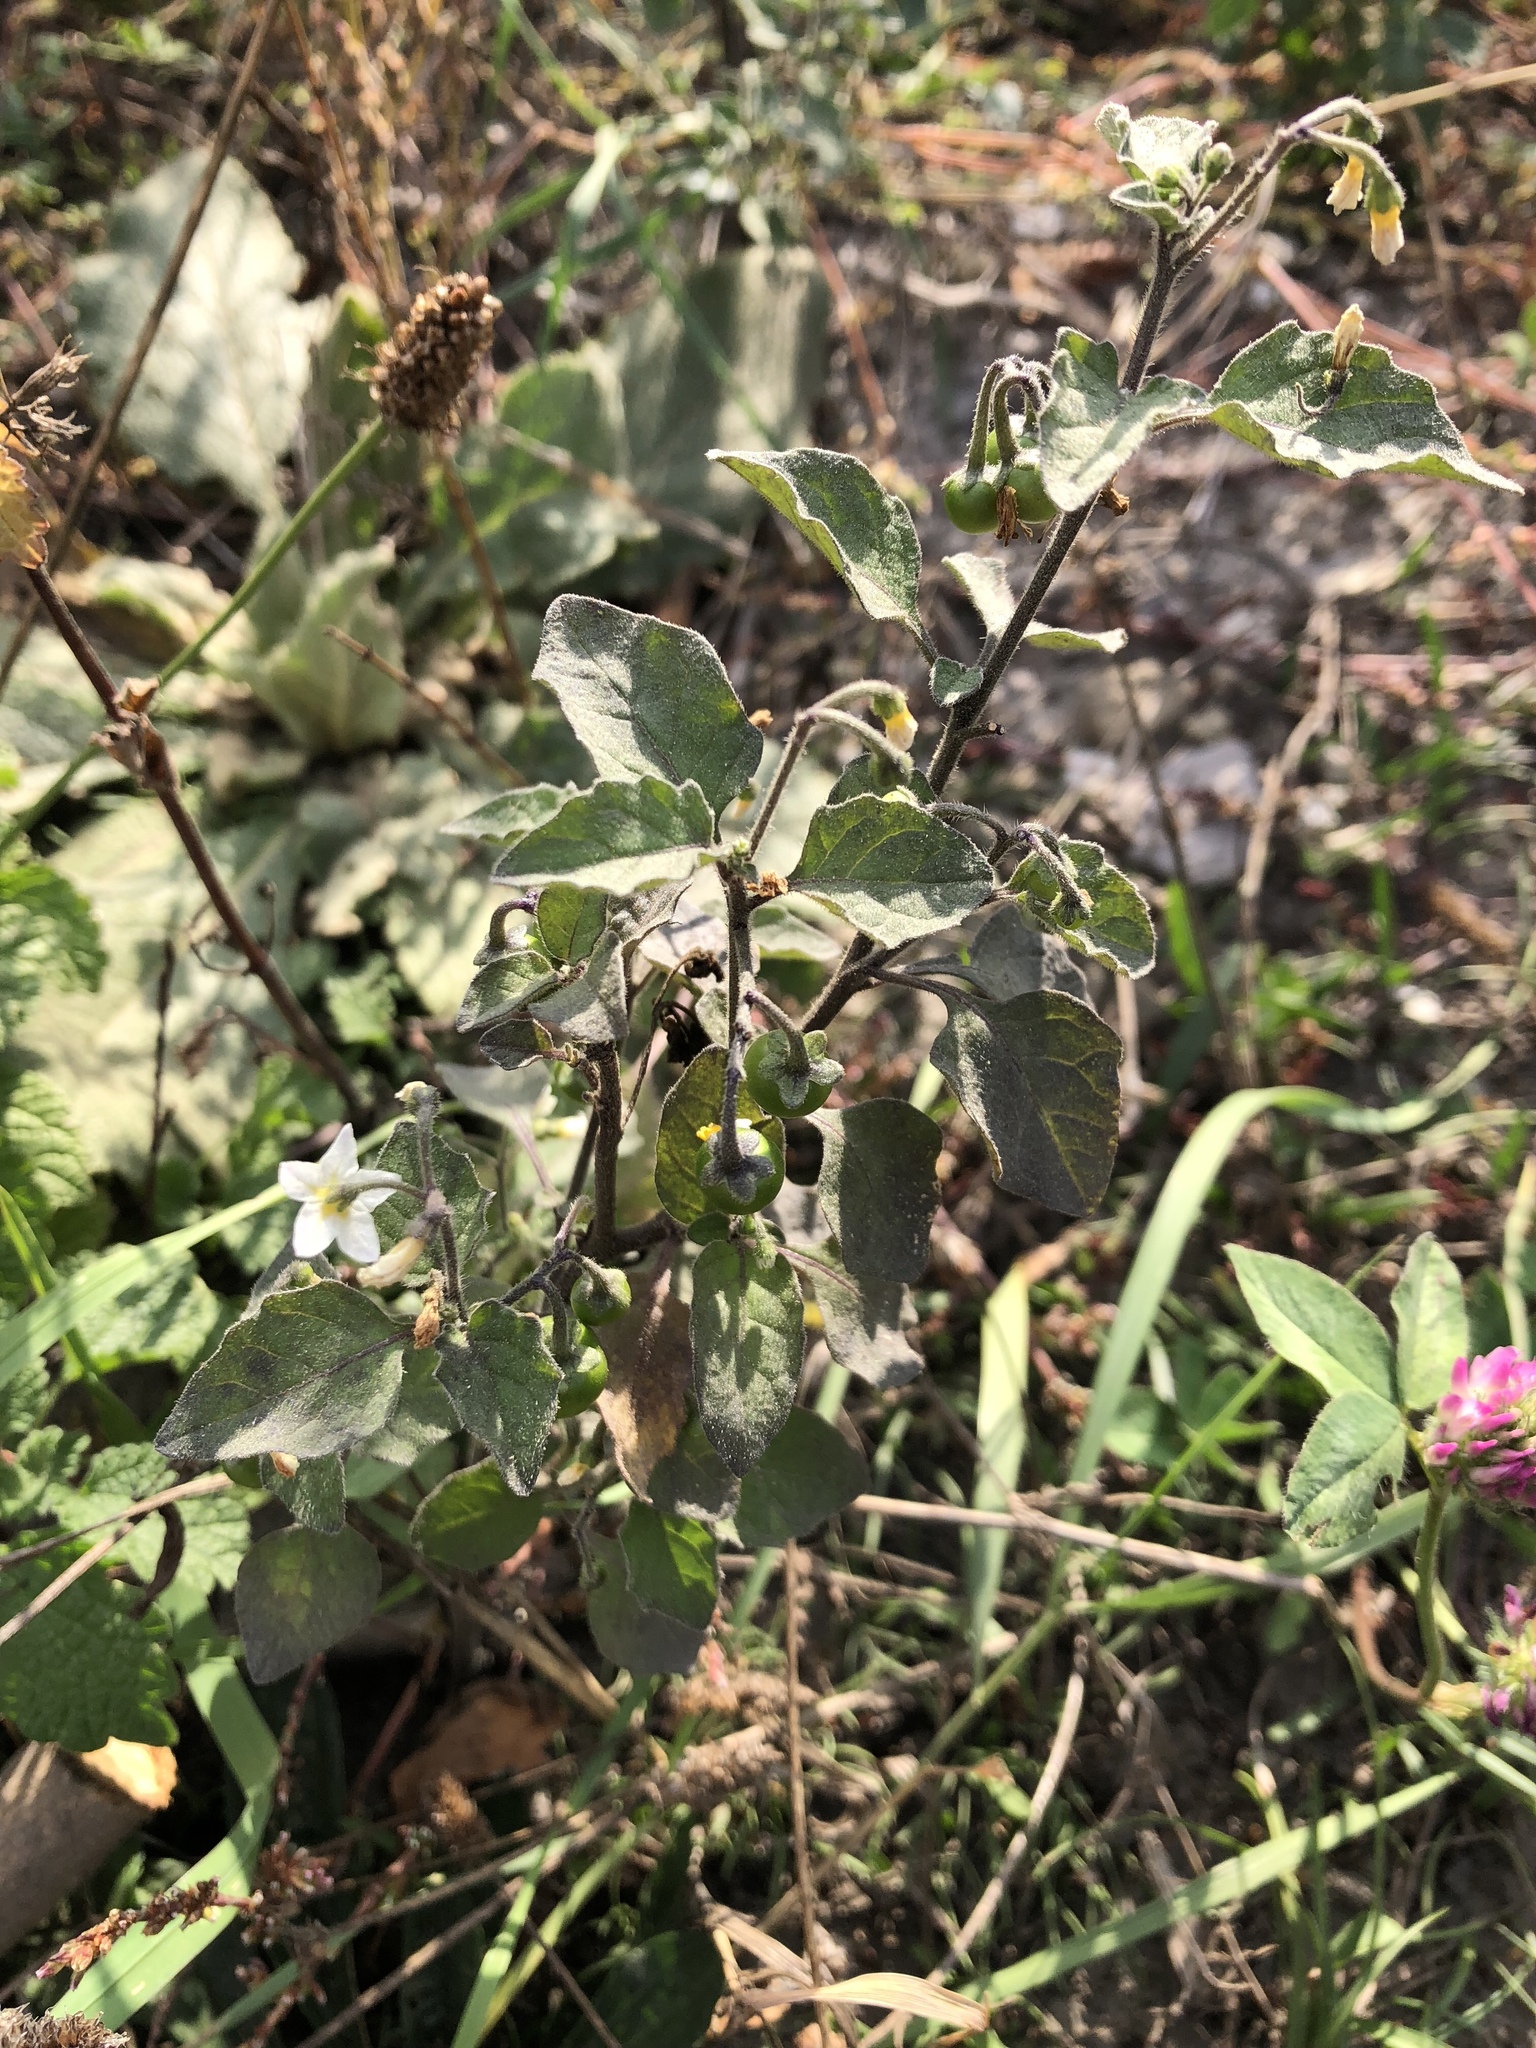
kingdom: Plantae
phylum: Tracheophyta
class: Magnoliopsida
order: Solanales
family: Solanaceae
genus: Solanum
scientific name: Solanum nigrum
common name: Black nightshade
